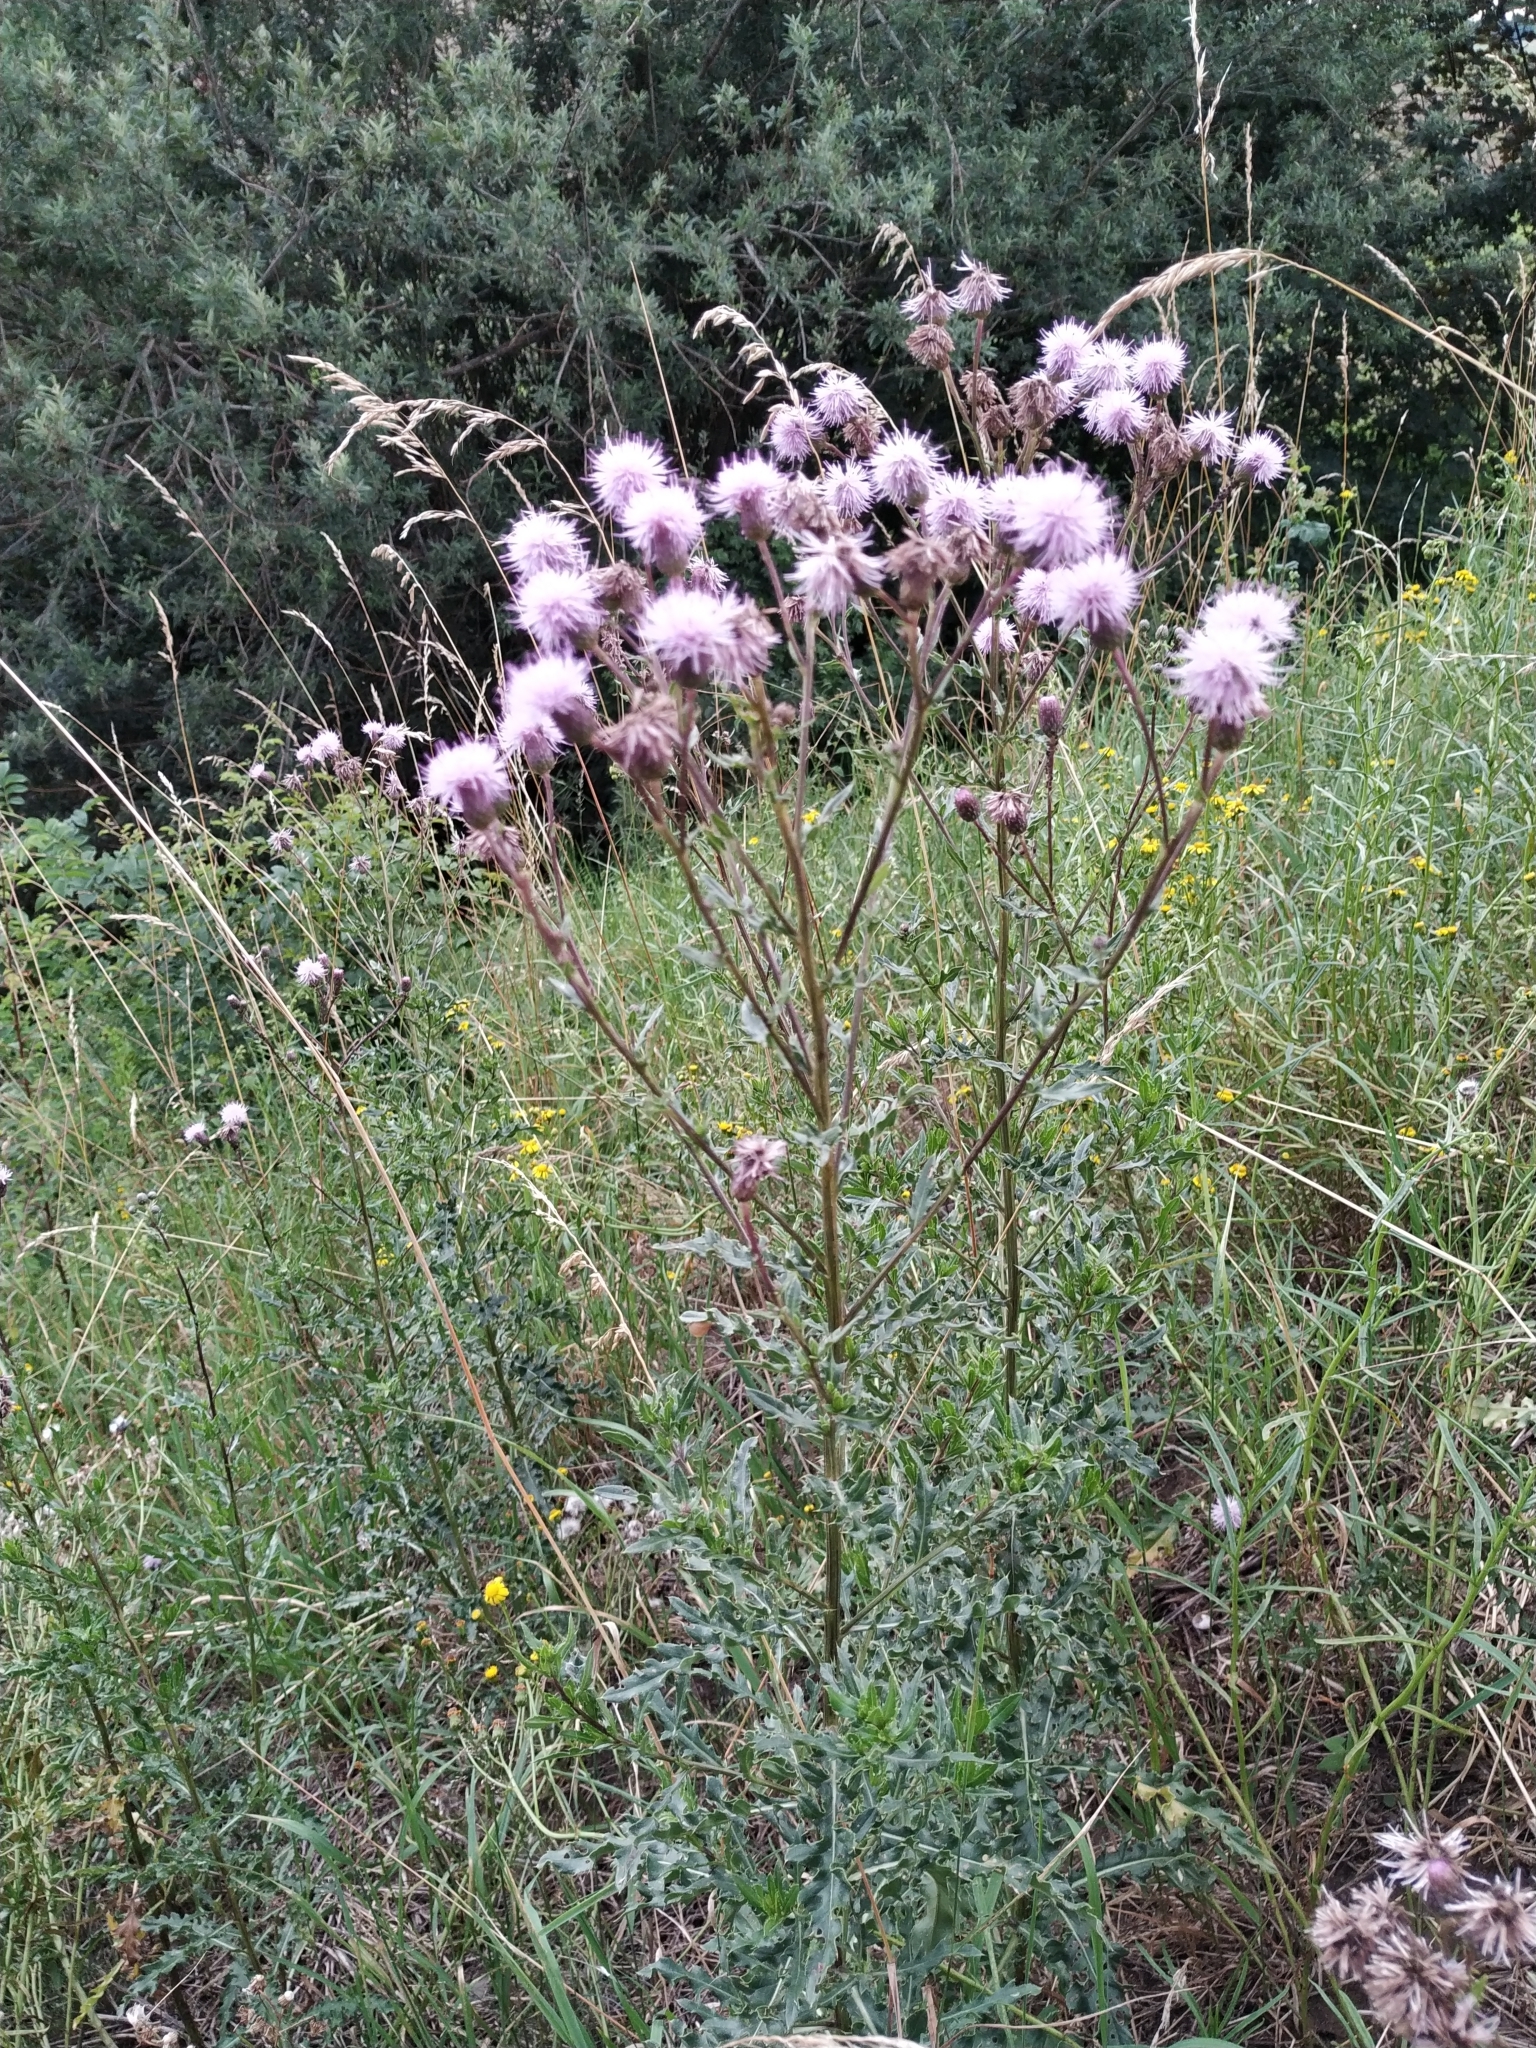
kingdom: Plantae
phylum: Tracheophyta
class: Magnoliopsida
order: Asterales
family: Asteraceae
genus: Cirsium
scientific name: Cirsium arvense
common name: Creeping thistle
